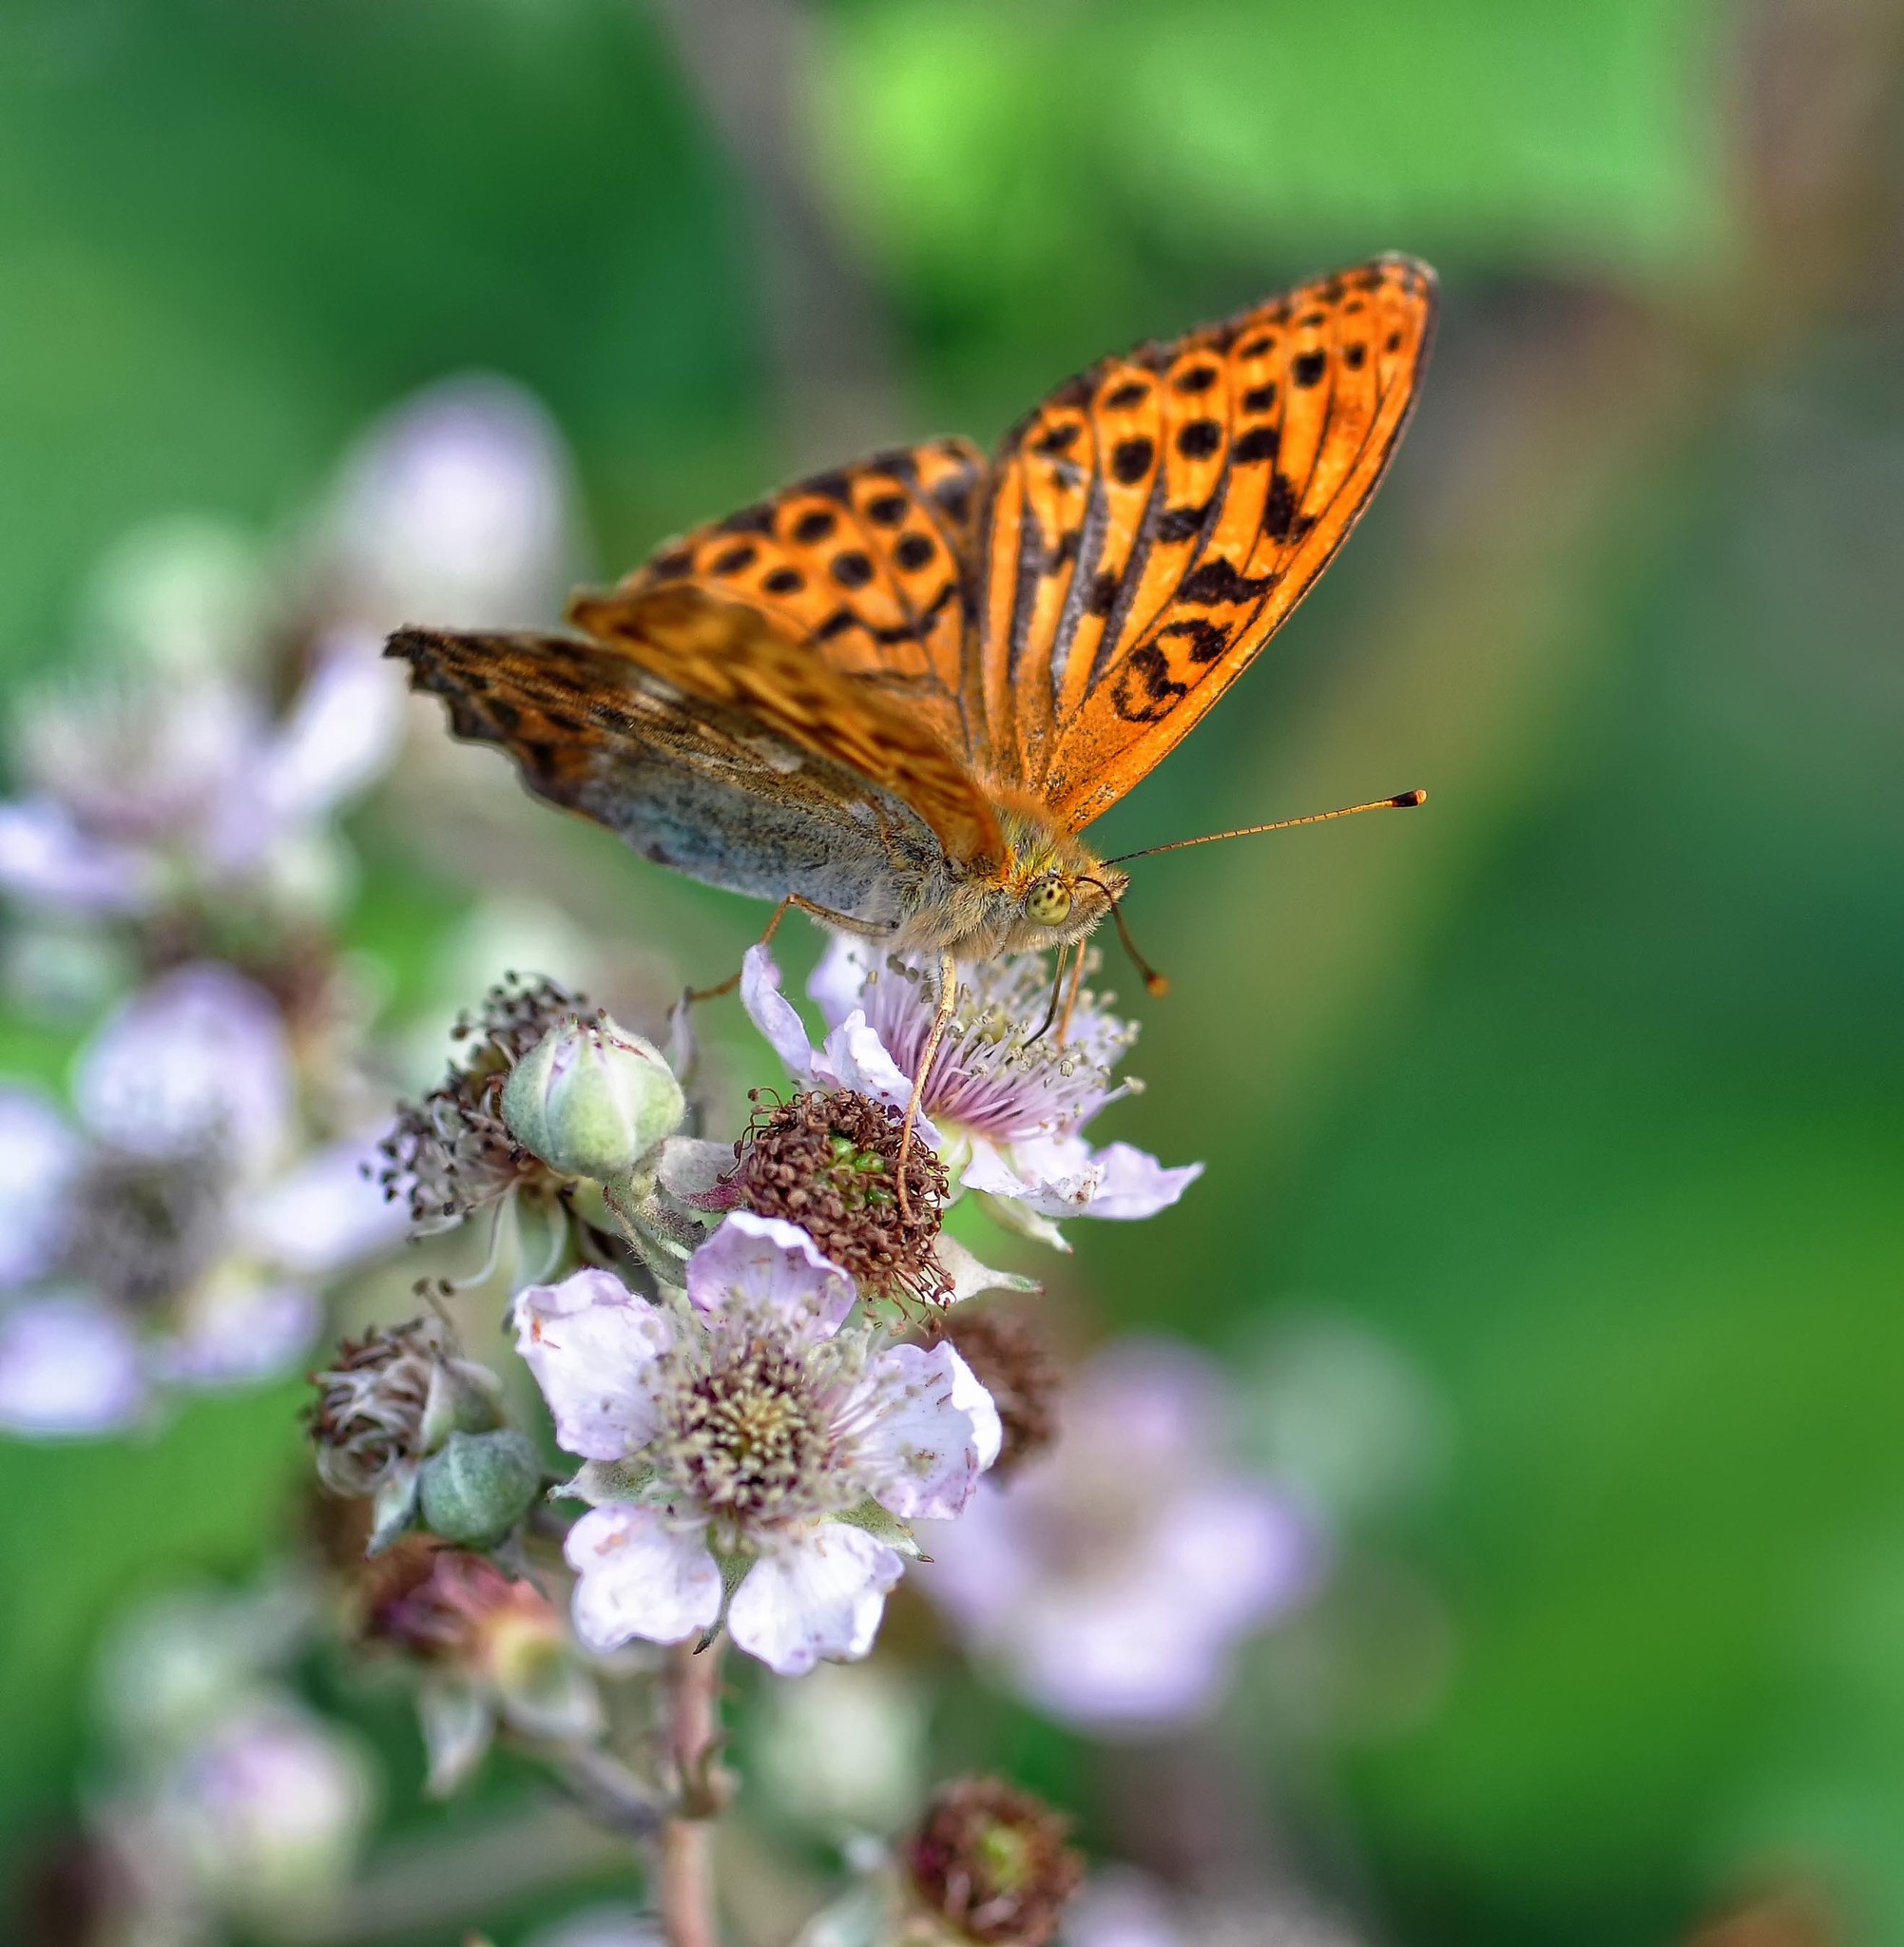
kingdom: Animalia
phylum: Arthropoda
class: Insecta
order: Lepidoptera
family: Nymphalidae
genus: Argynnis
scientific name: Argynnis paphia
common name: Silver-washed fritillary
